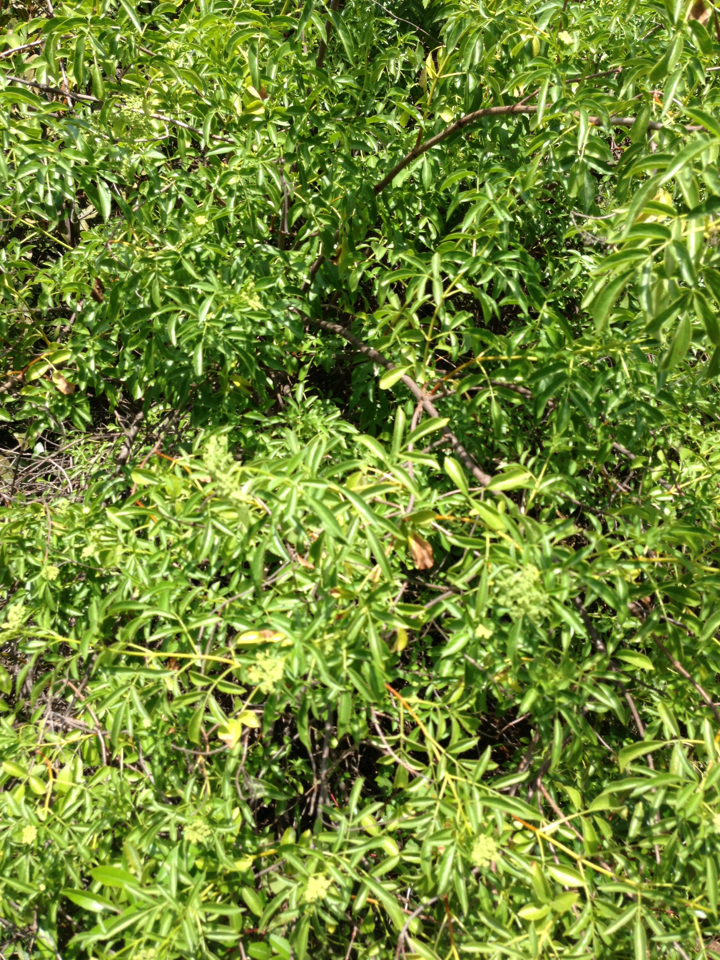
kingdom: Plantae
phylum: Tracheophyta
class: Magnoliopsida
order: Dipsacales
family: Viburnaceae
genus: Sambucus
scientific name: Sambucus cerulea
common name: Blue elder
